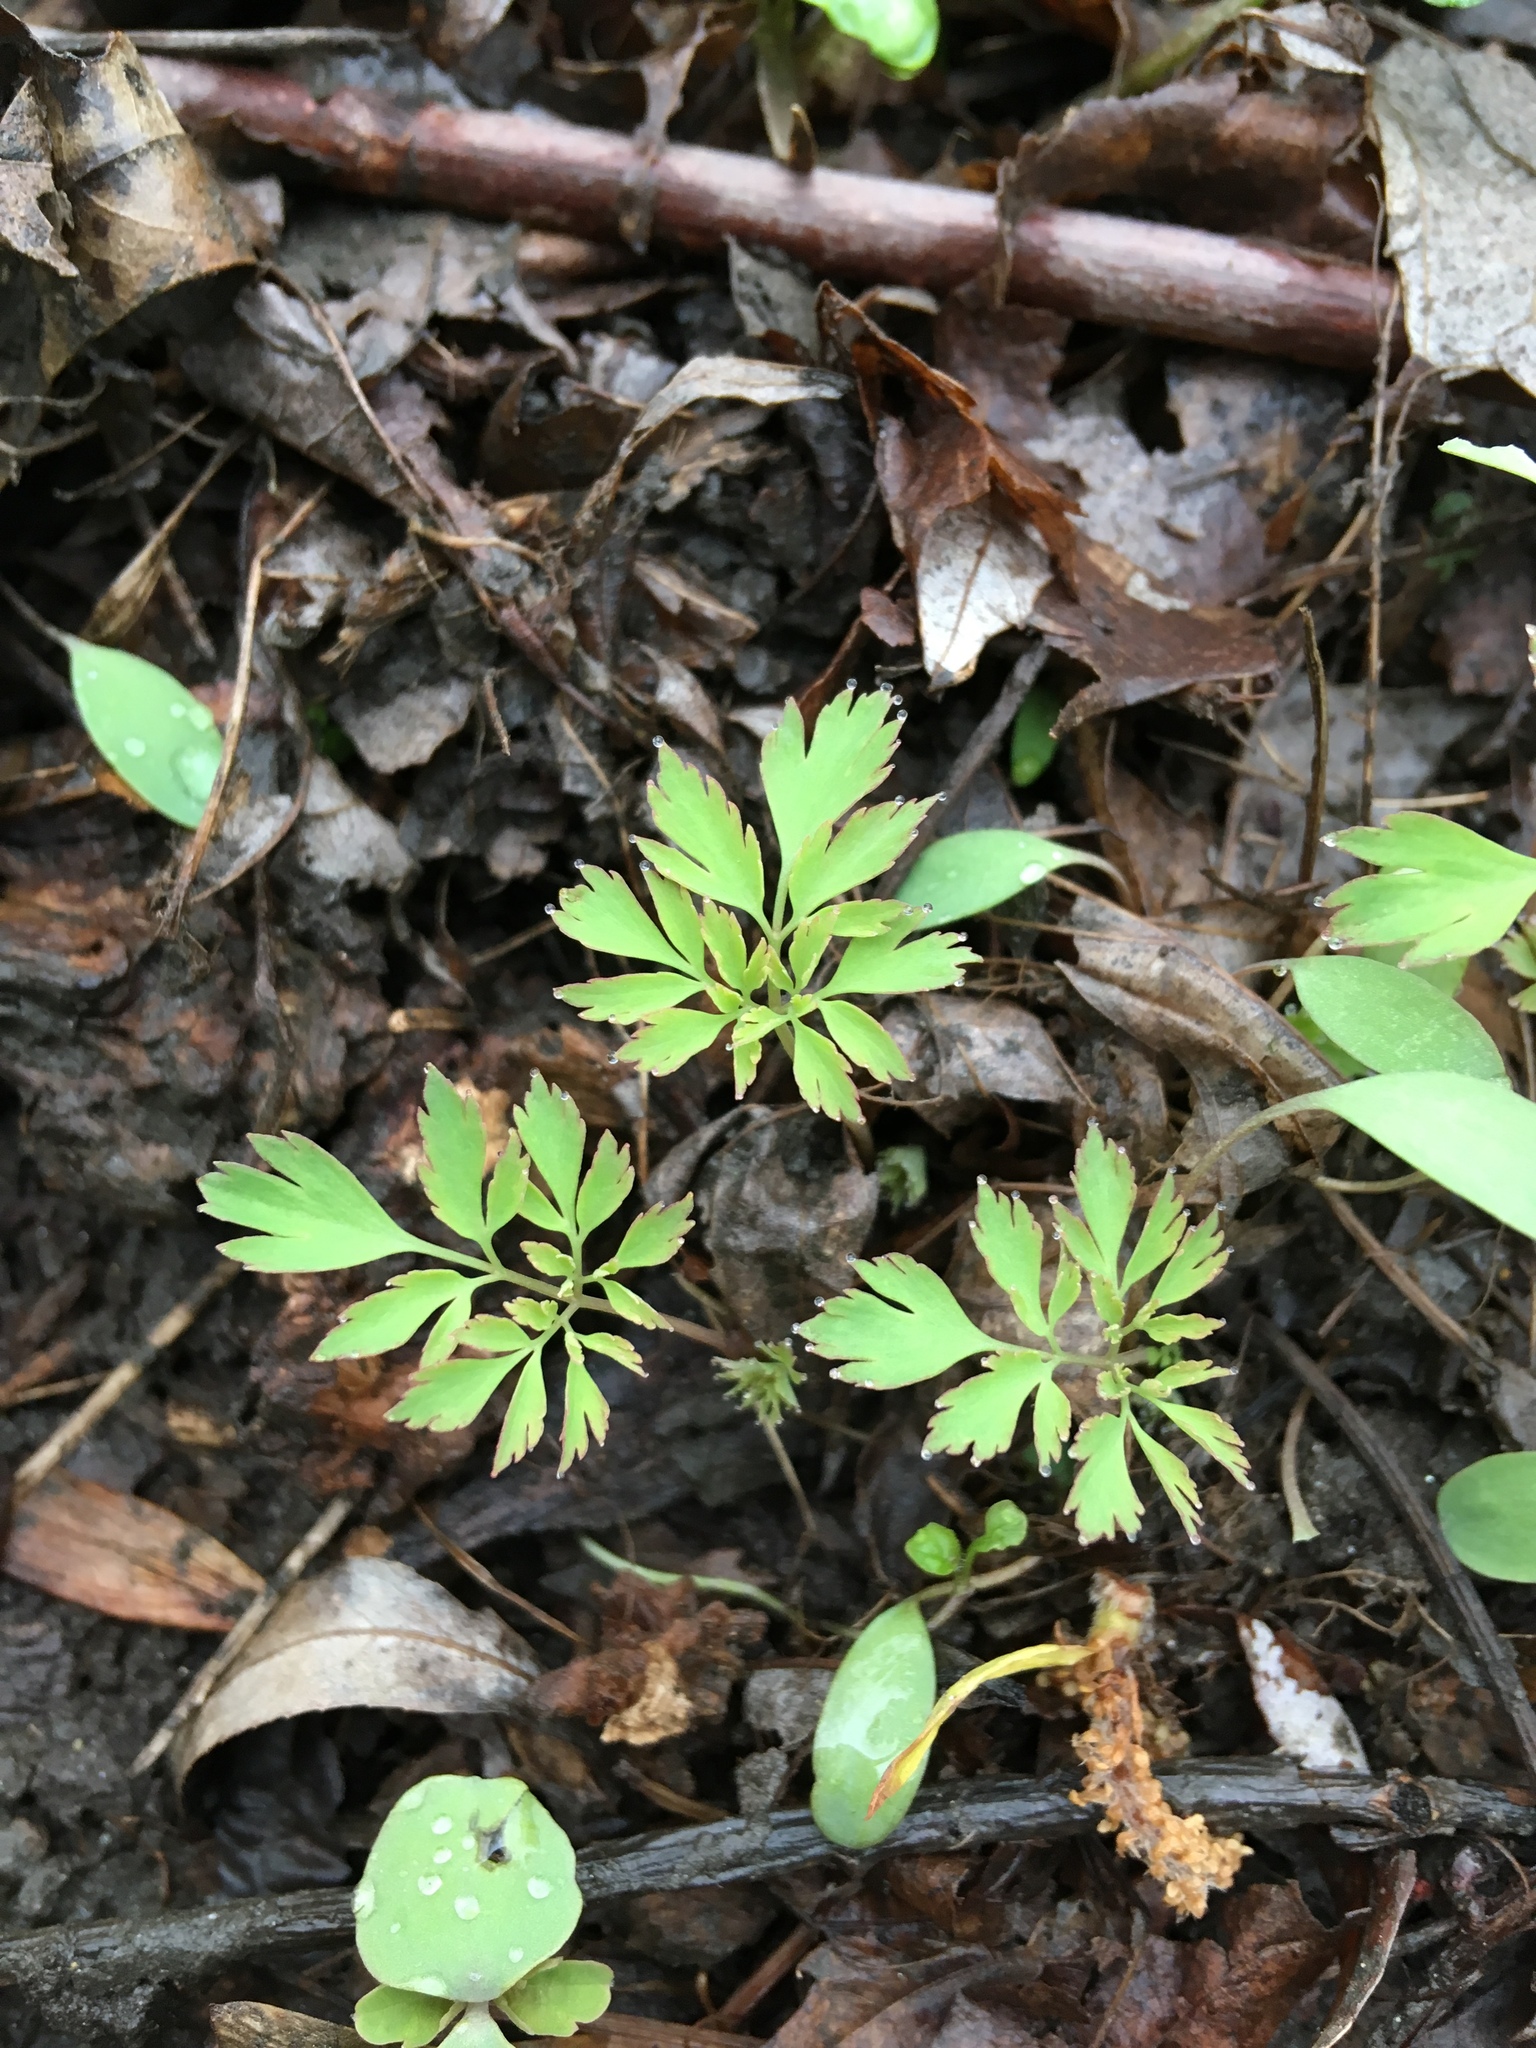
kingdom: Plantae
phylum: Tracheophyta
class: Magnoliopsida
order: Ranunculales
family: Papaveraceae
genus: Corydalis
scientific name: Corydalis incisa
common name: Incised fumewort
